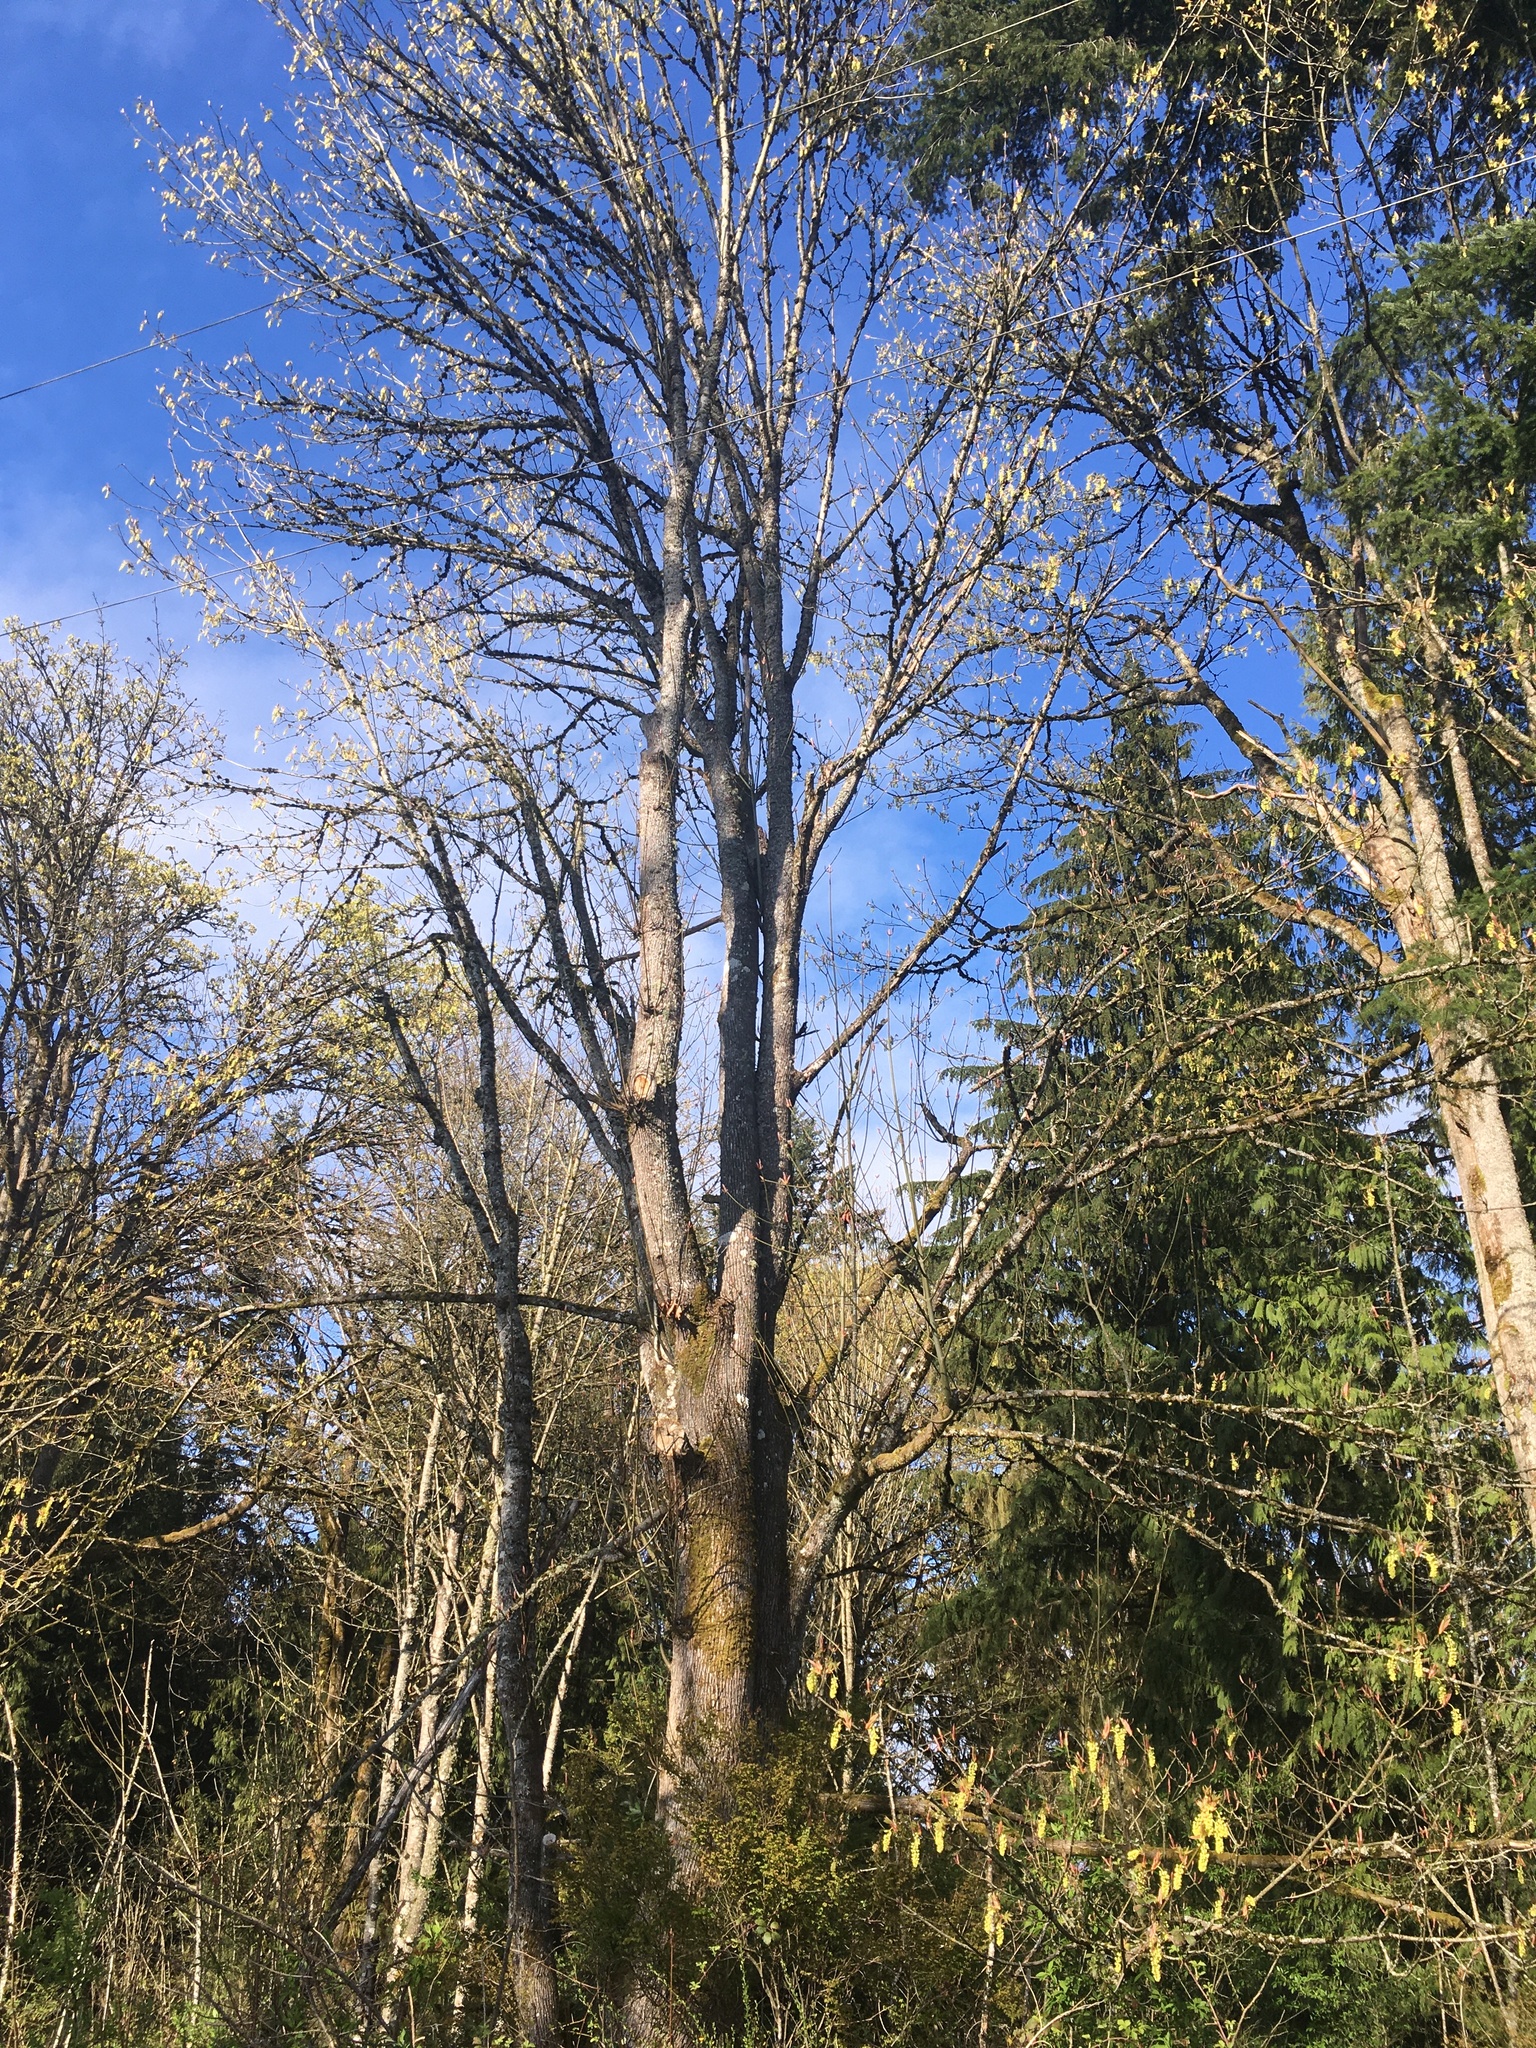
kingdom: Plantae
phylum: Tracheophyta
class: Magnoliopsida
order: Sapindales
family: Sapindaceae
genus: Acer
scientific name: Acer macrophyllum
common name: Oregon maple
